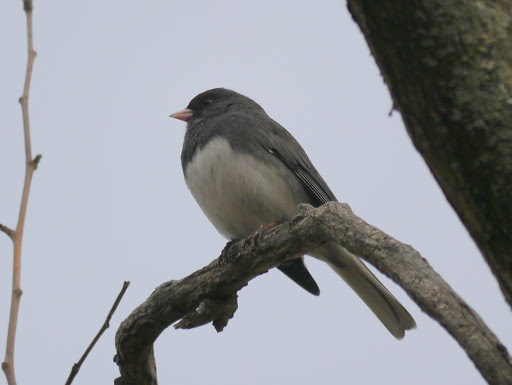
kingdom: Animalia
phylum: Chordata
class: Aves
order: Passeriformes
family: Passerellidae
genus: Junco
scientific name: Junco hyemalis
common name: Dark-eyed junco
